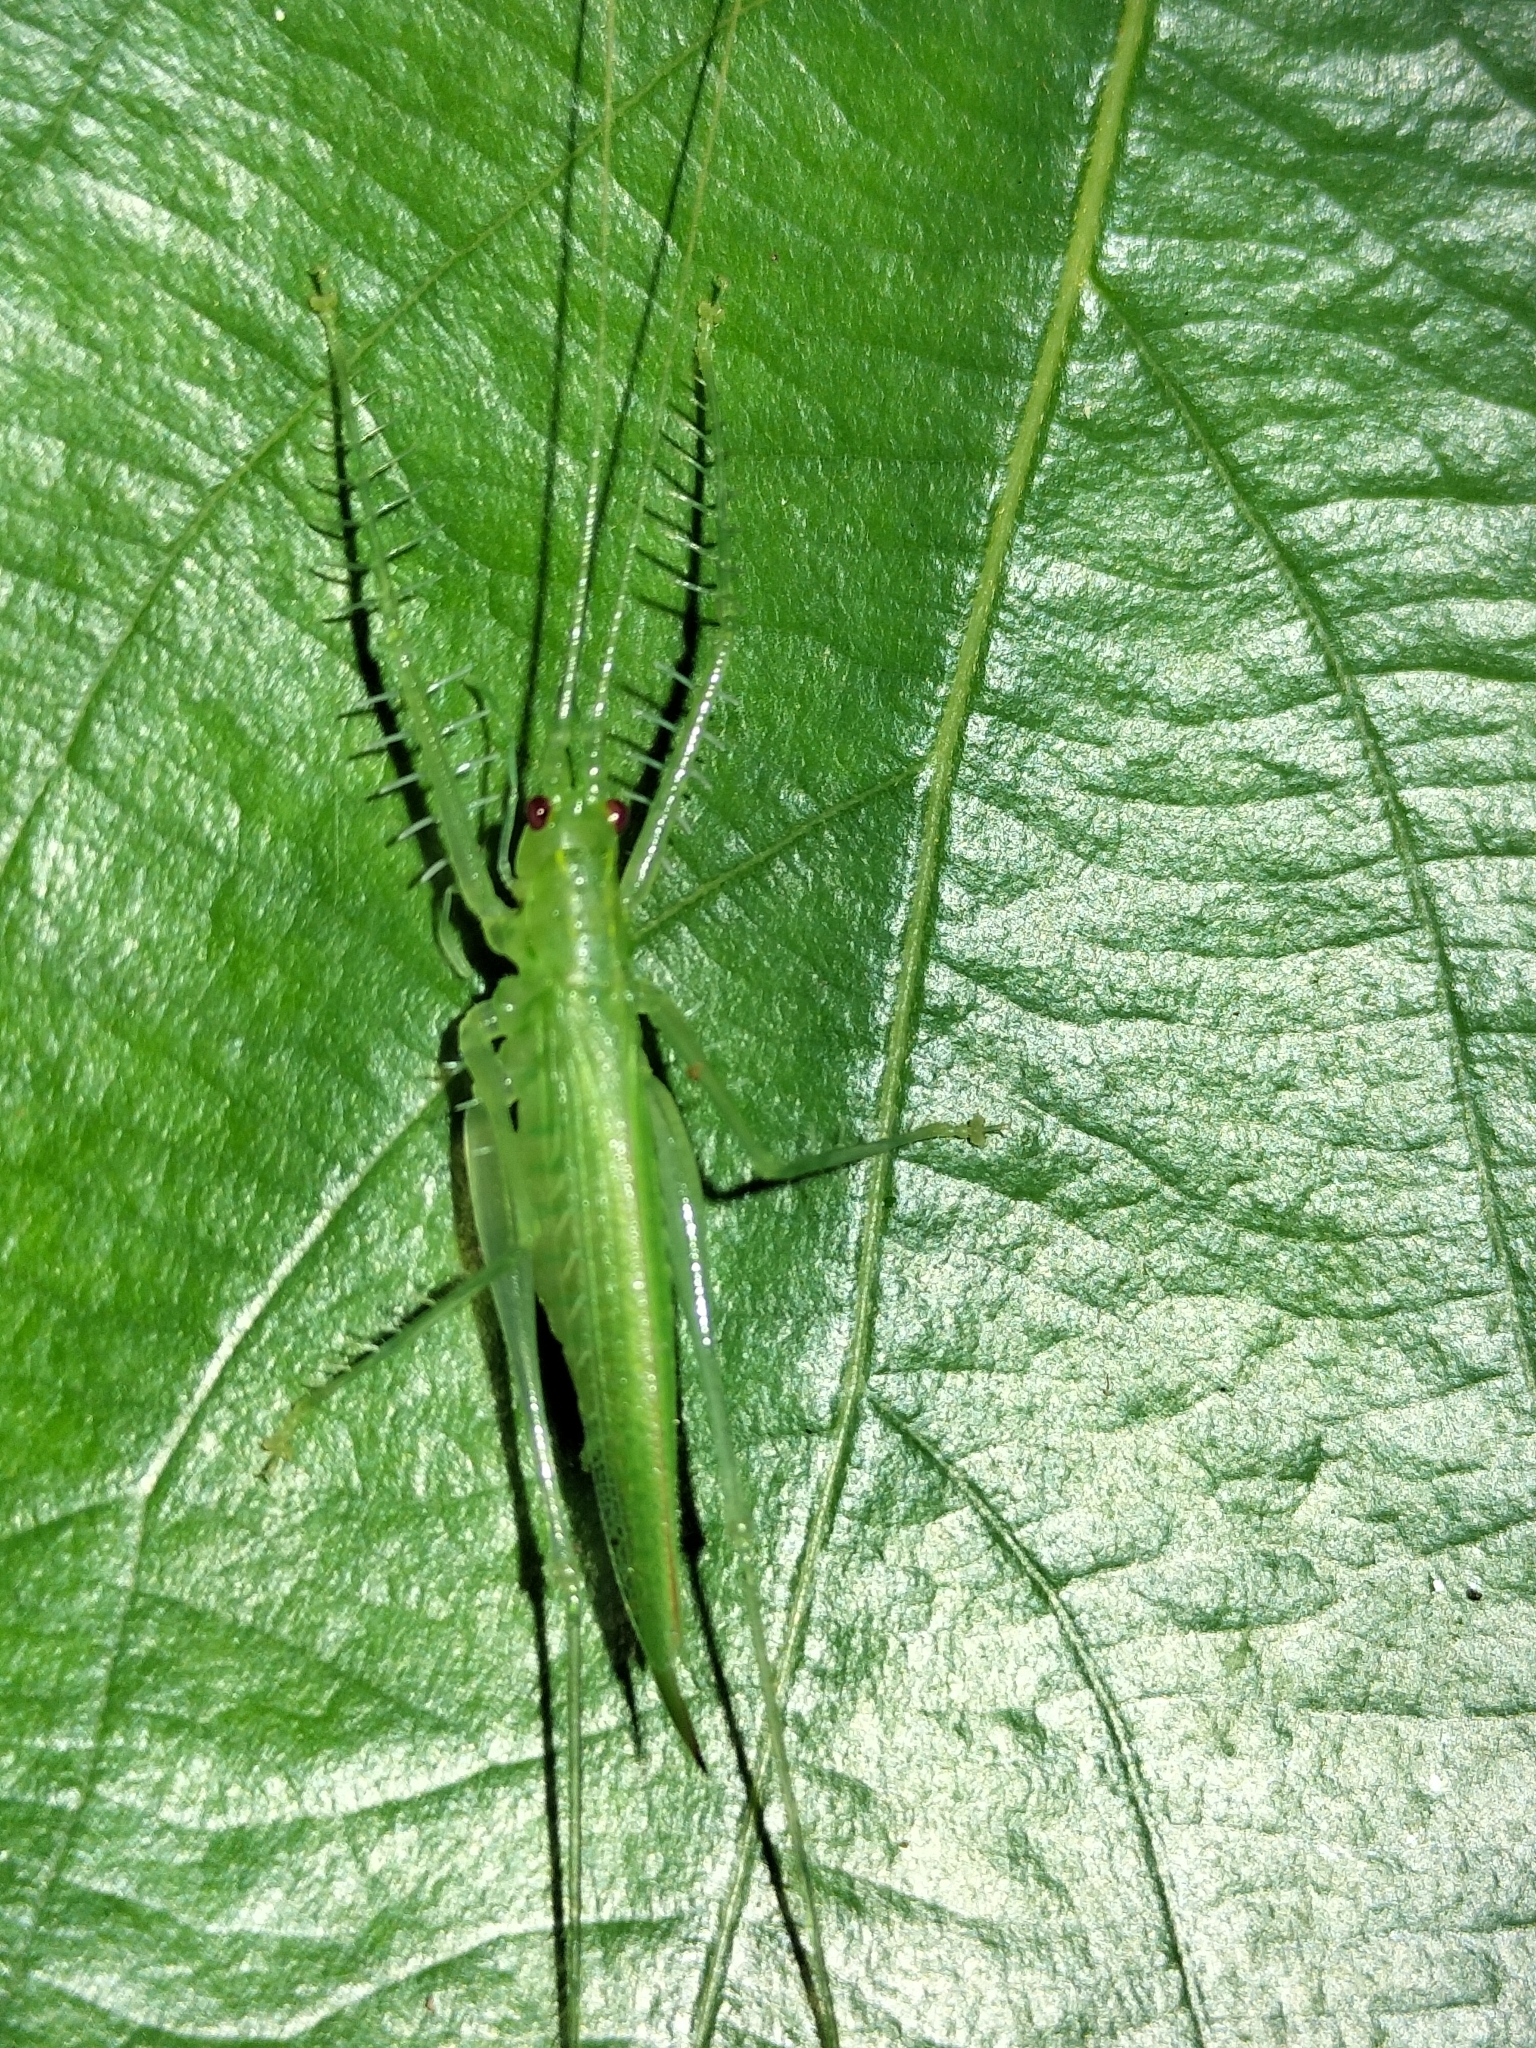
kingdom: Animalia
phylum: Arthropoda
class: Insecta
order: Orthoptera
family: Tettigoniidae
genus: Paraphisis
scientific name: Paraphisis alumba
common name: Yungaburra spider katydid
